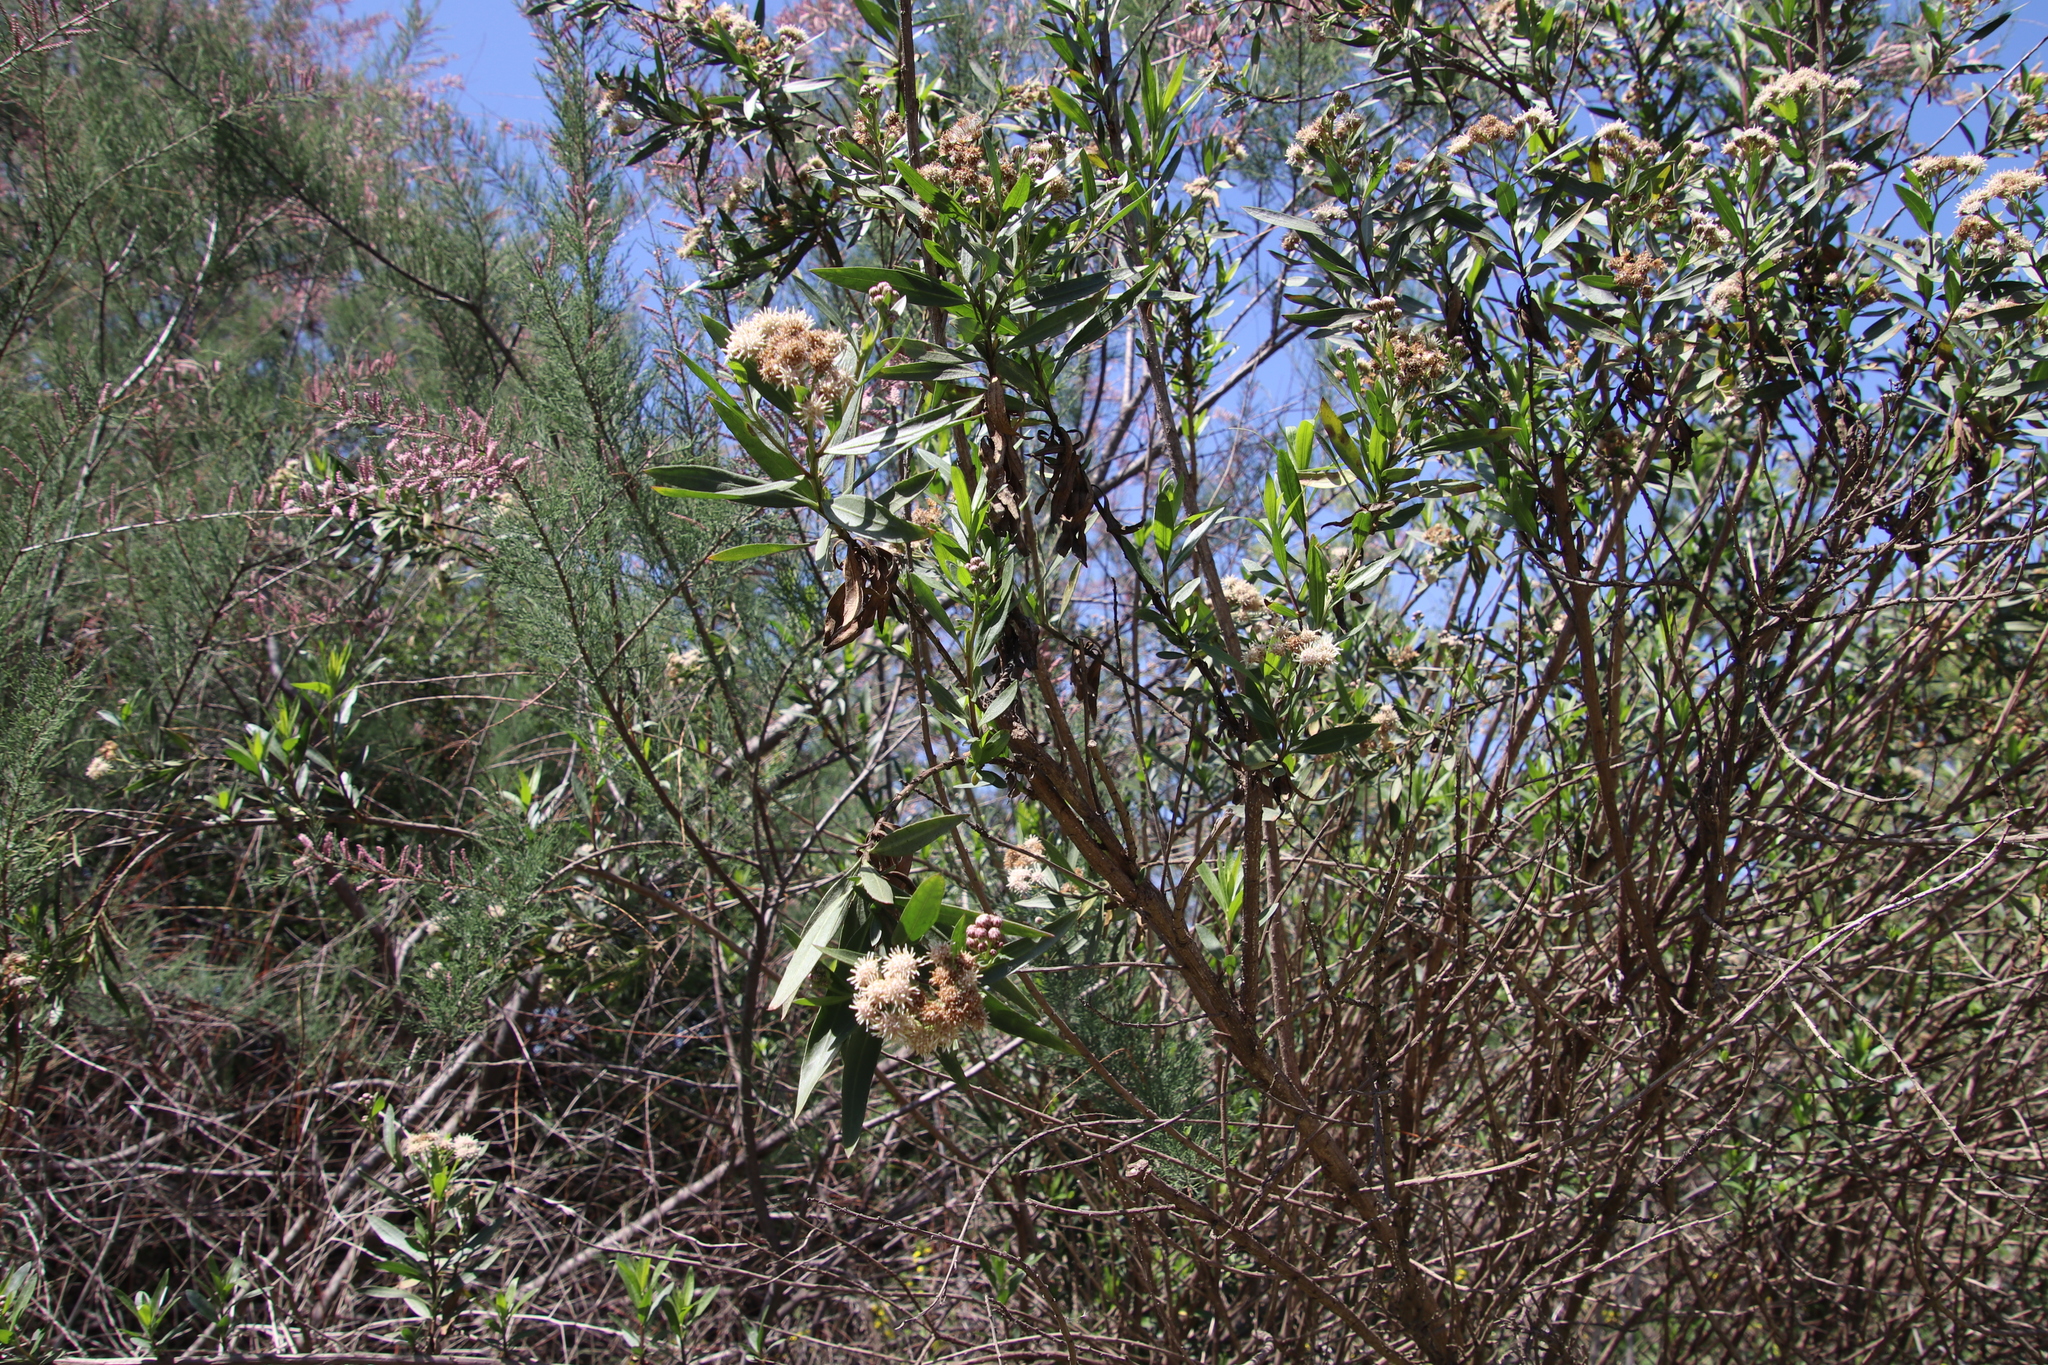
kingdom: Plantae
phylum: Tracheophyta
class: Magnoliopsida
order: Asterales
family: Asteraceae
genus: Baccharis
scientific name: Baccharis salicifolia
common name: Sticky baccharis
